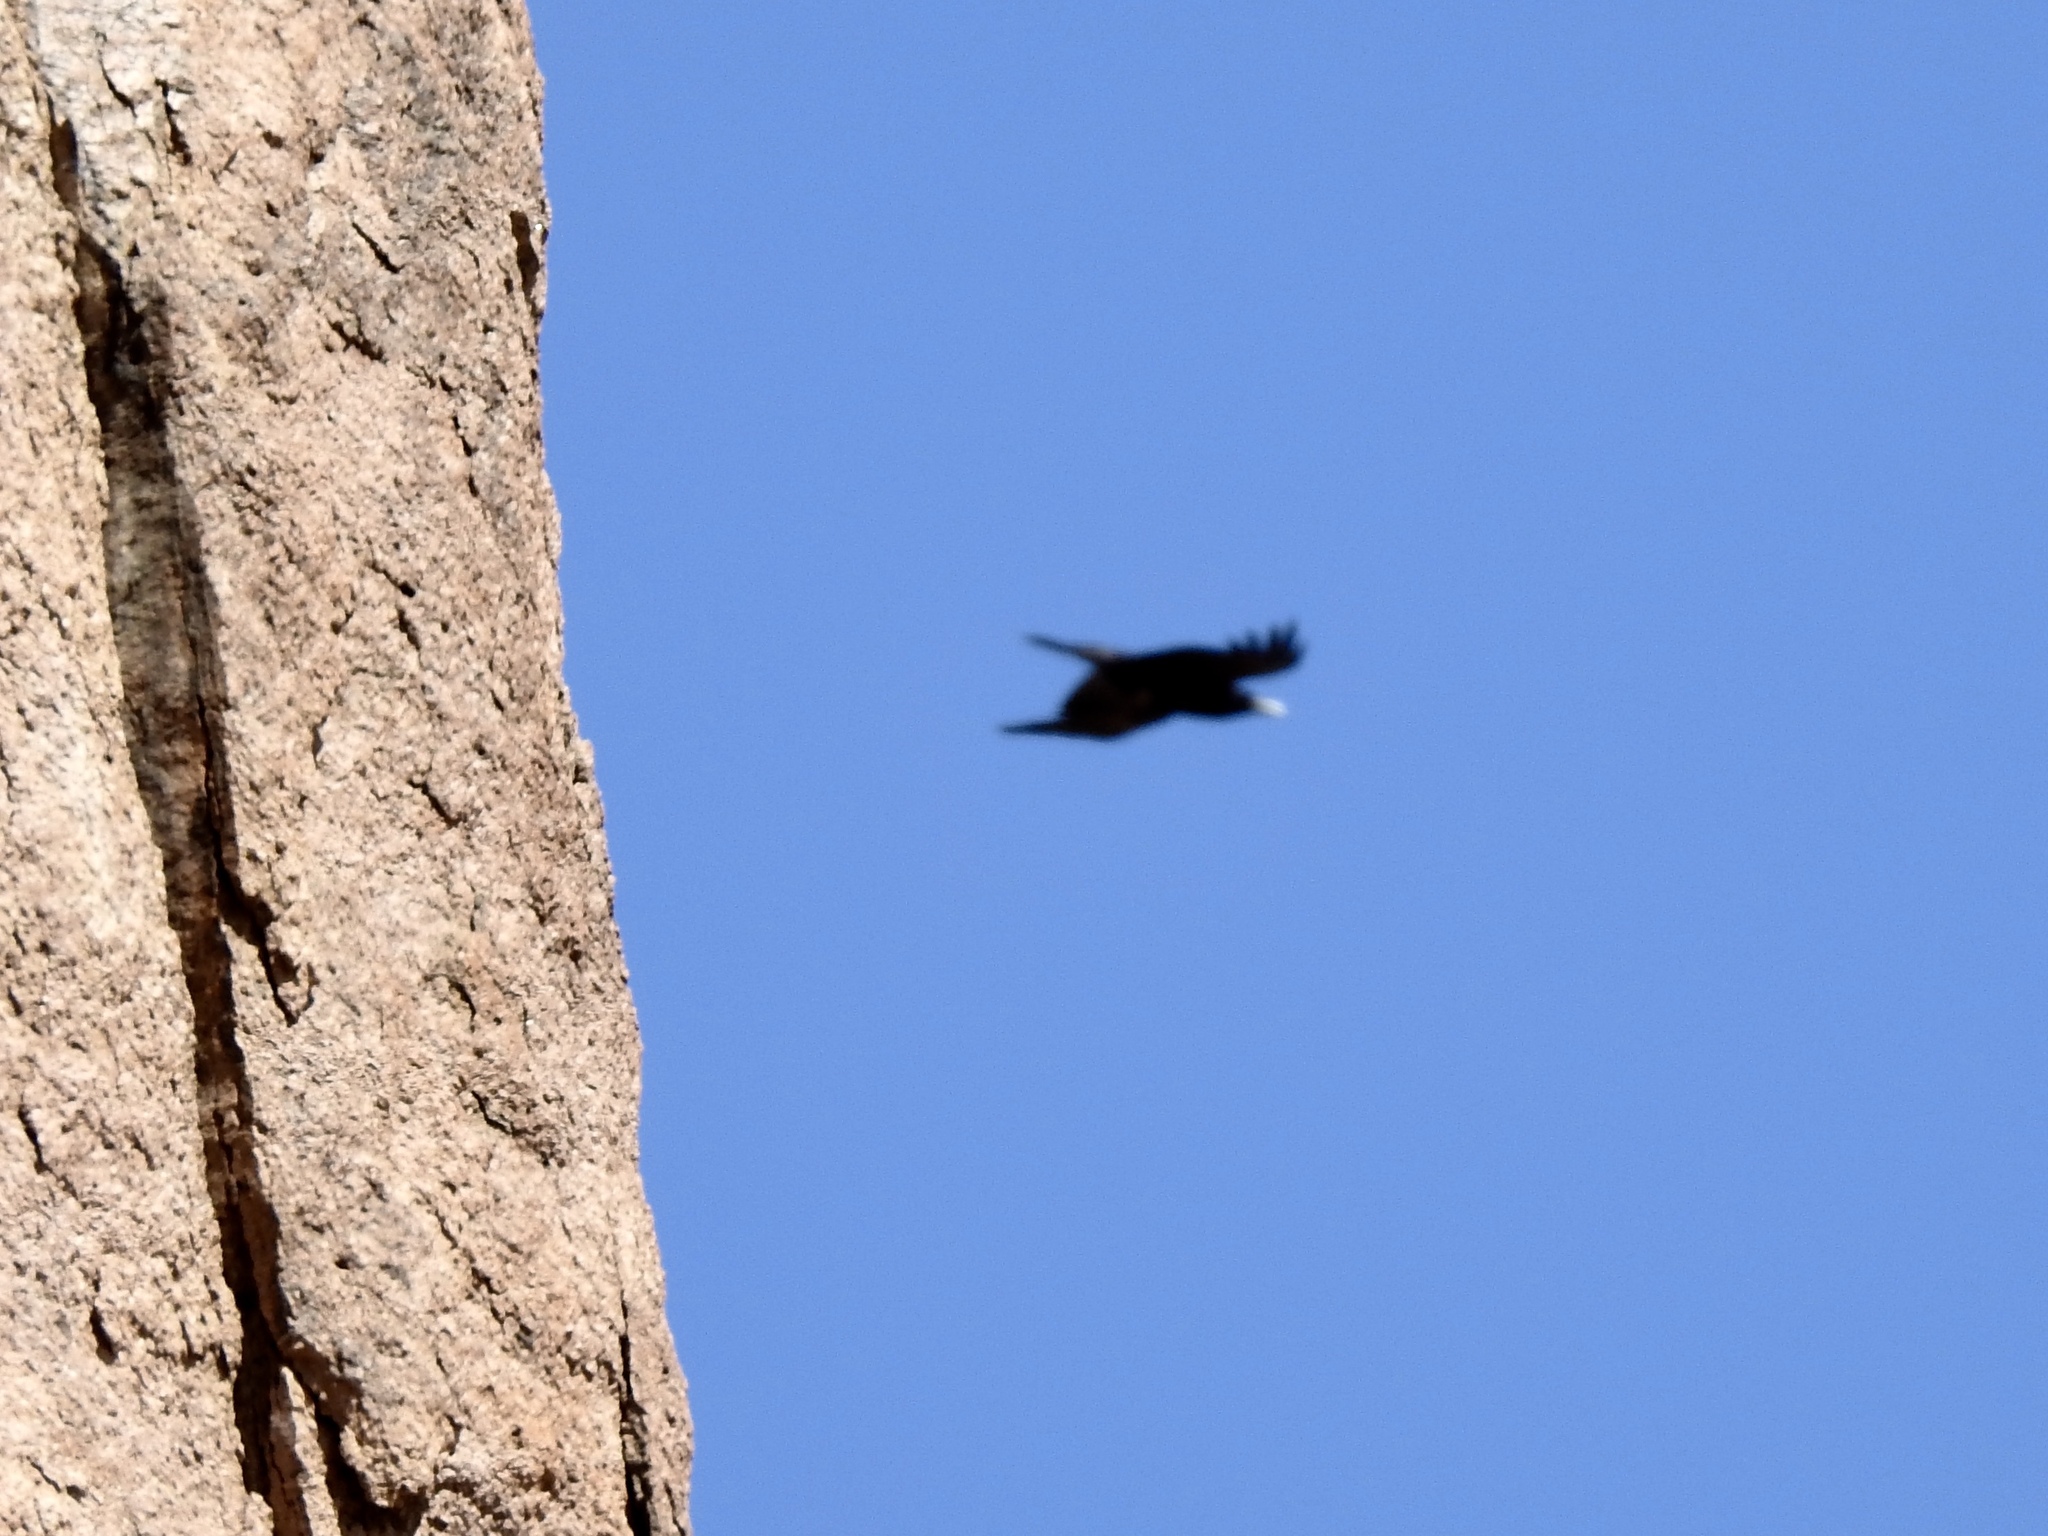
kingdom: Animalia
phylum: Chordata
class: Aves
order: Passeriformes
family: Corvidae
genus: Corvus
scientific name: Corvus corax
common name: Common raven
